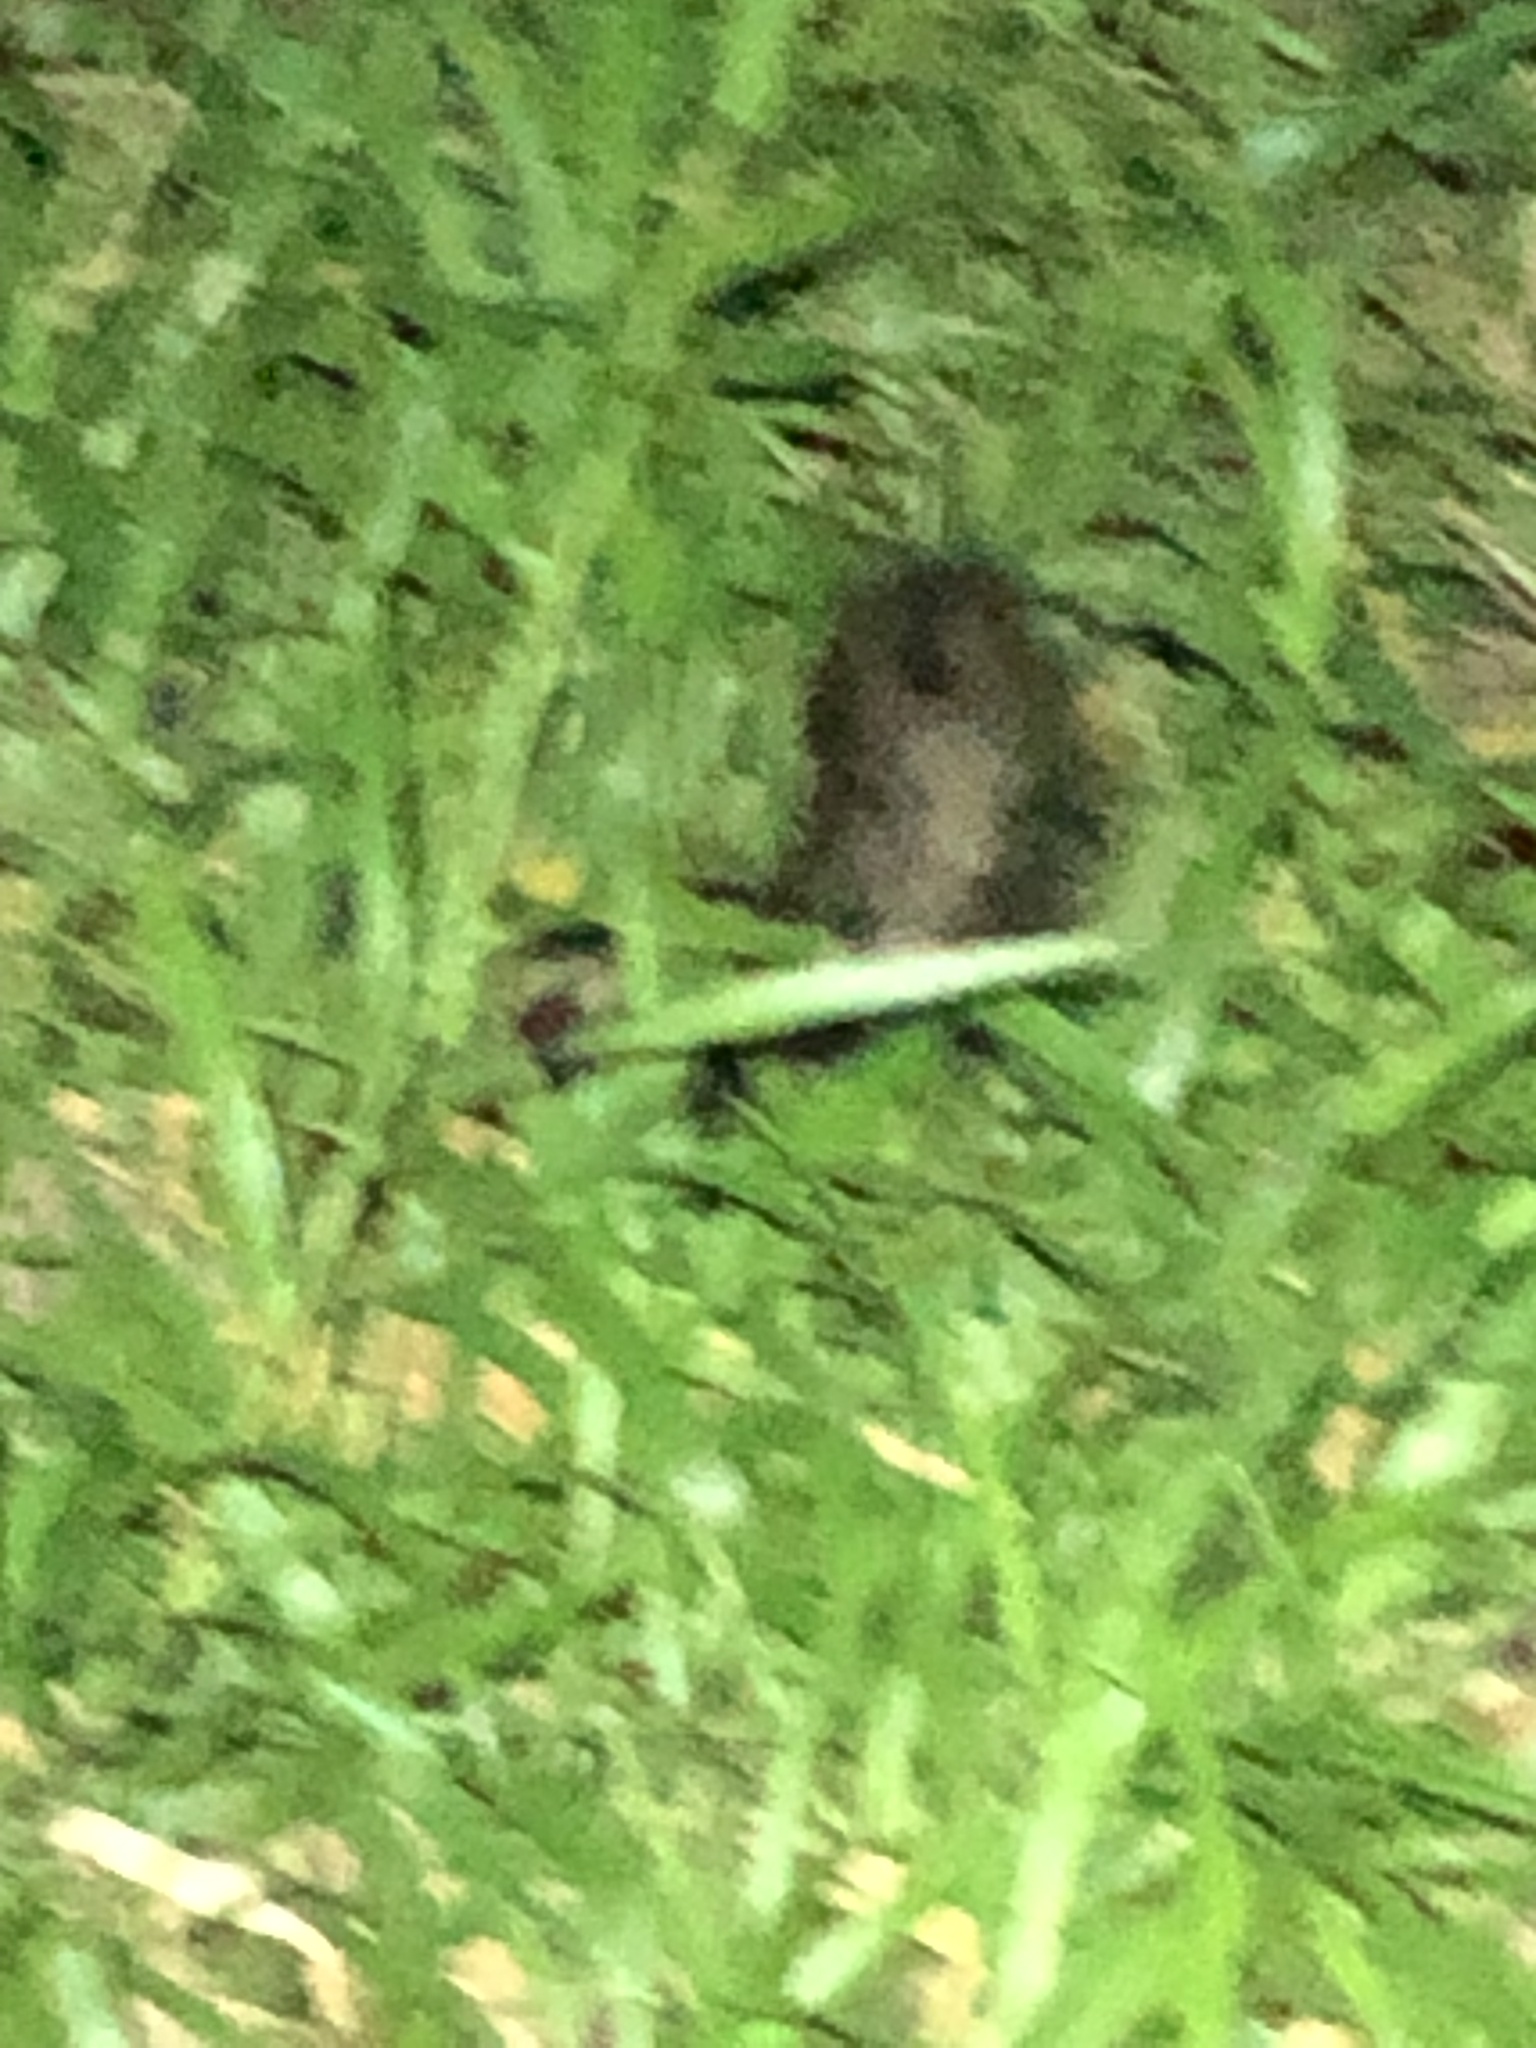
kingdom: Animalia
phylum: Chordata
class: Mammalia
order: Carnivora
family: Mephitidae
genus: Mephitis
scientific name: Mephitis mephitis
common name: Striped skunk
